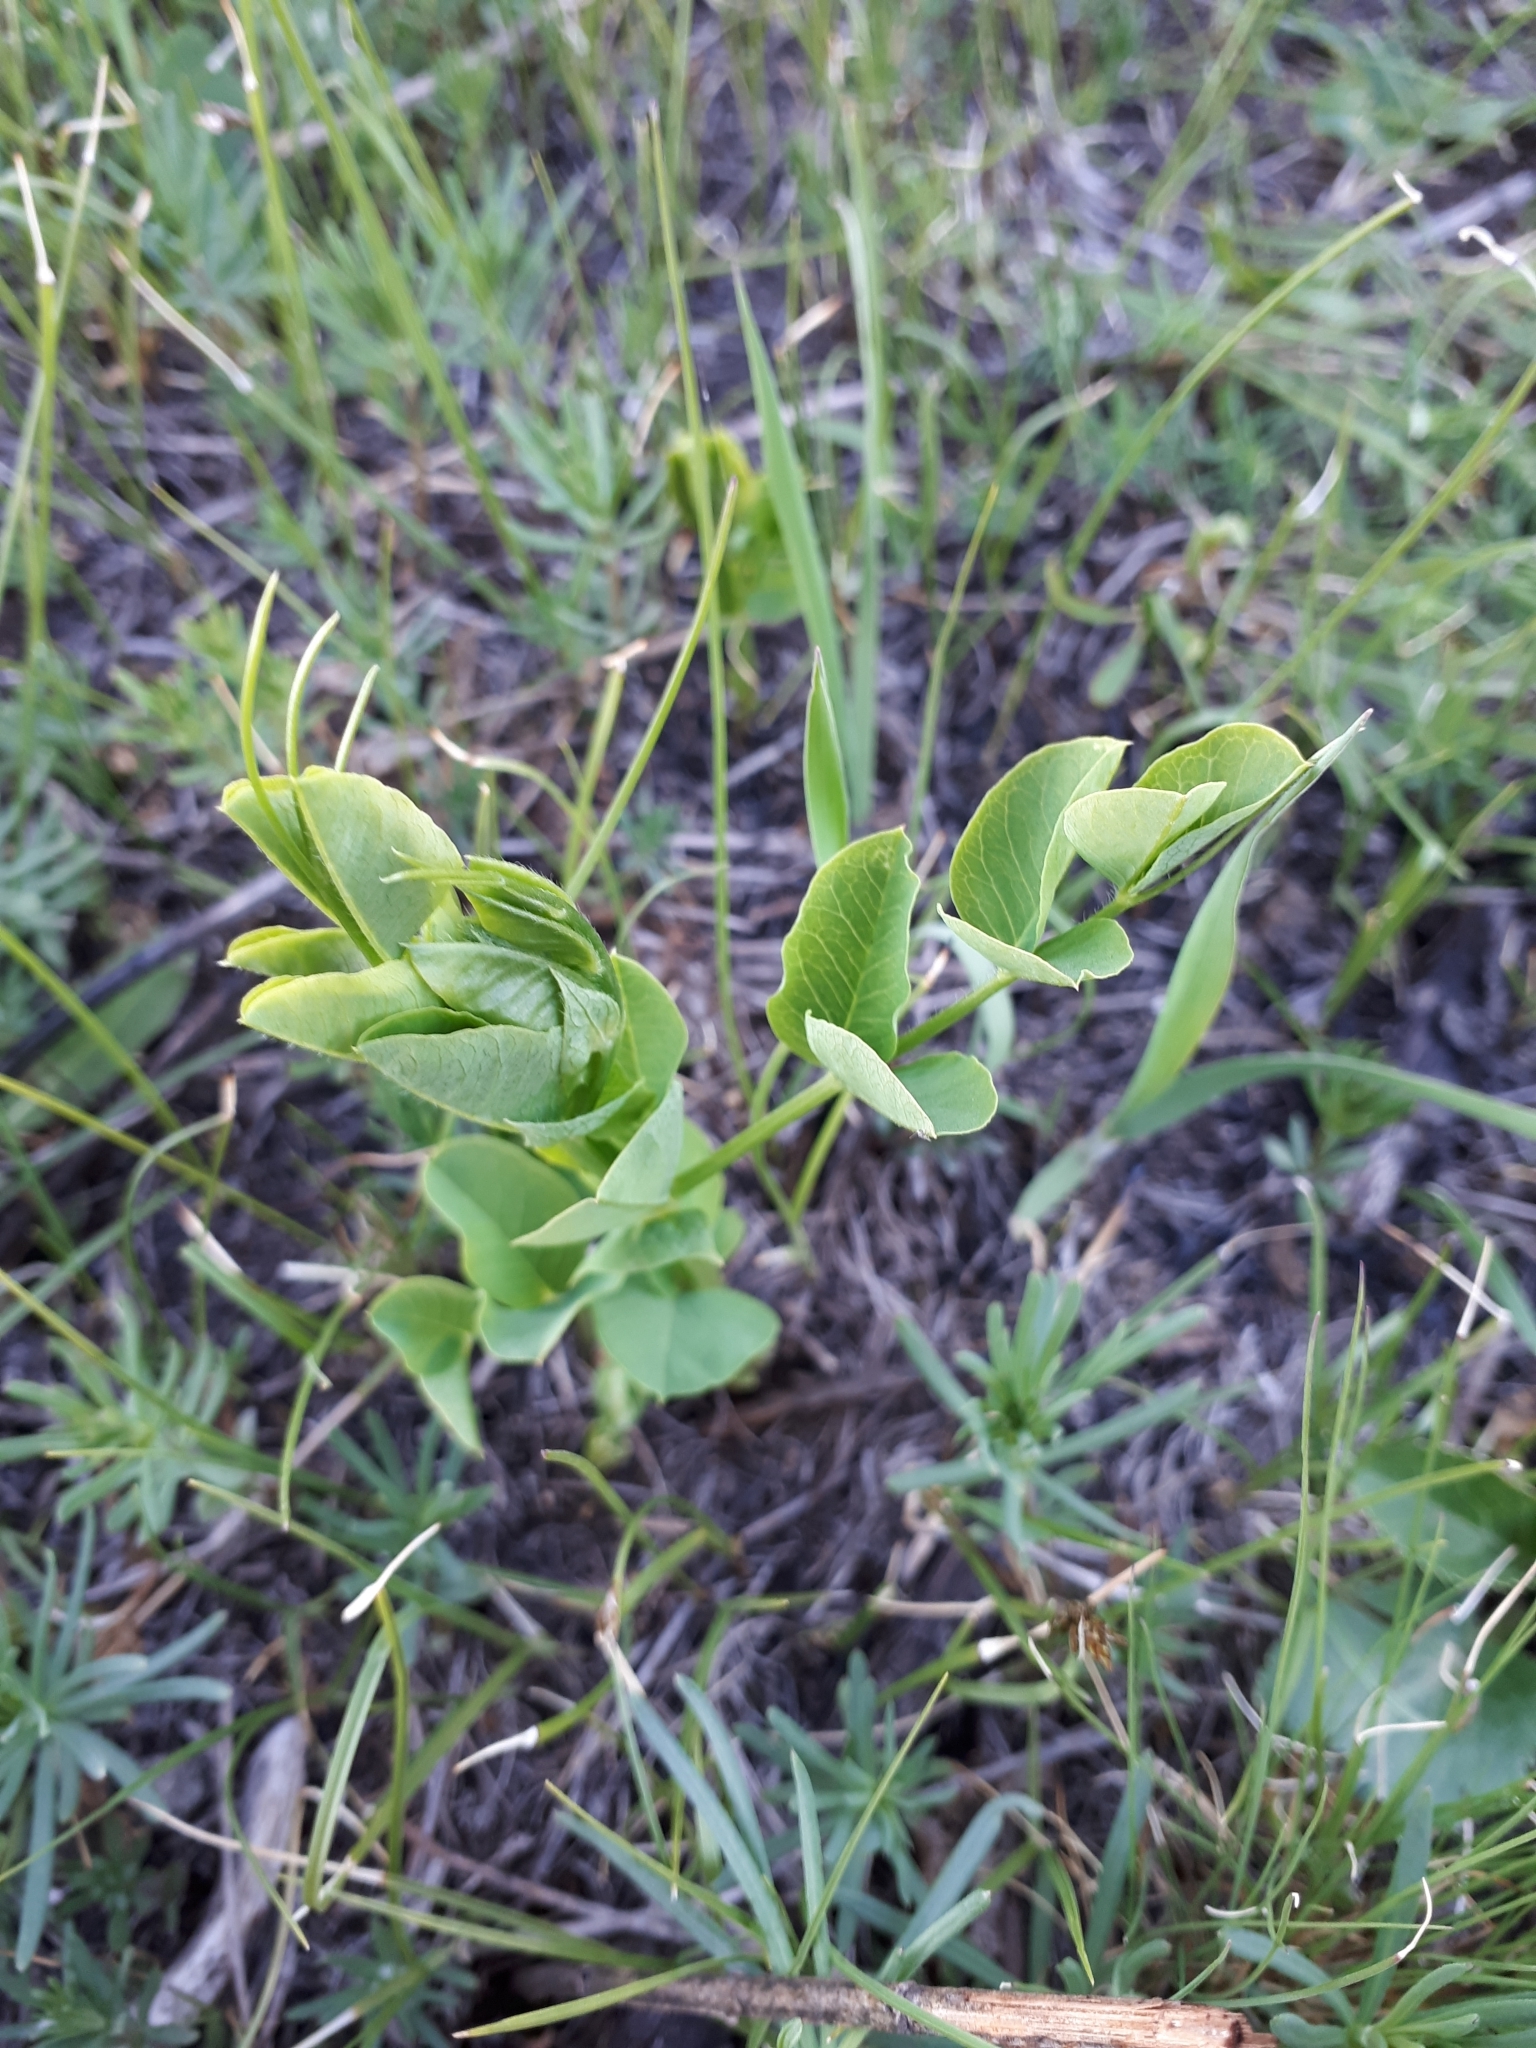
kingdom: Plantae
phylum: Tracheophyta
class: Magnoliopsida
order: Fabales
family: Fabaceae
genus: Astragalus
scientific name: Astragalus glycyphyllos
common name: Wild liquorice
